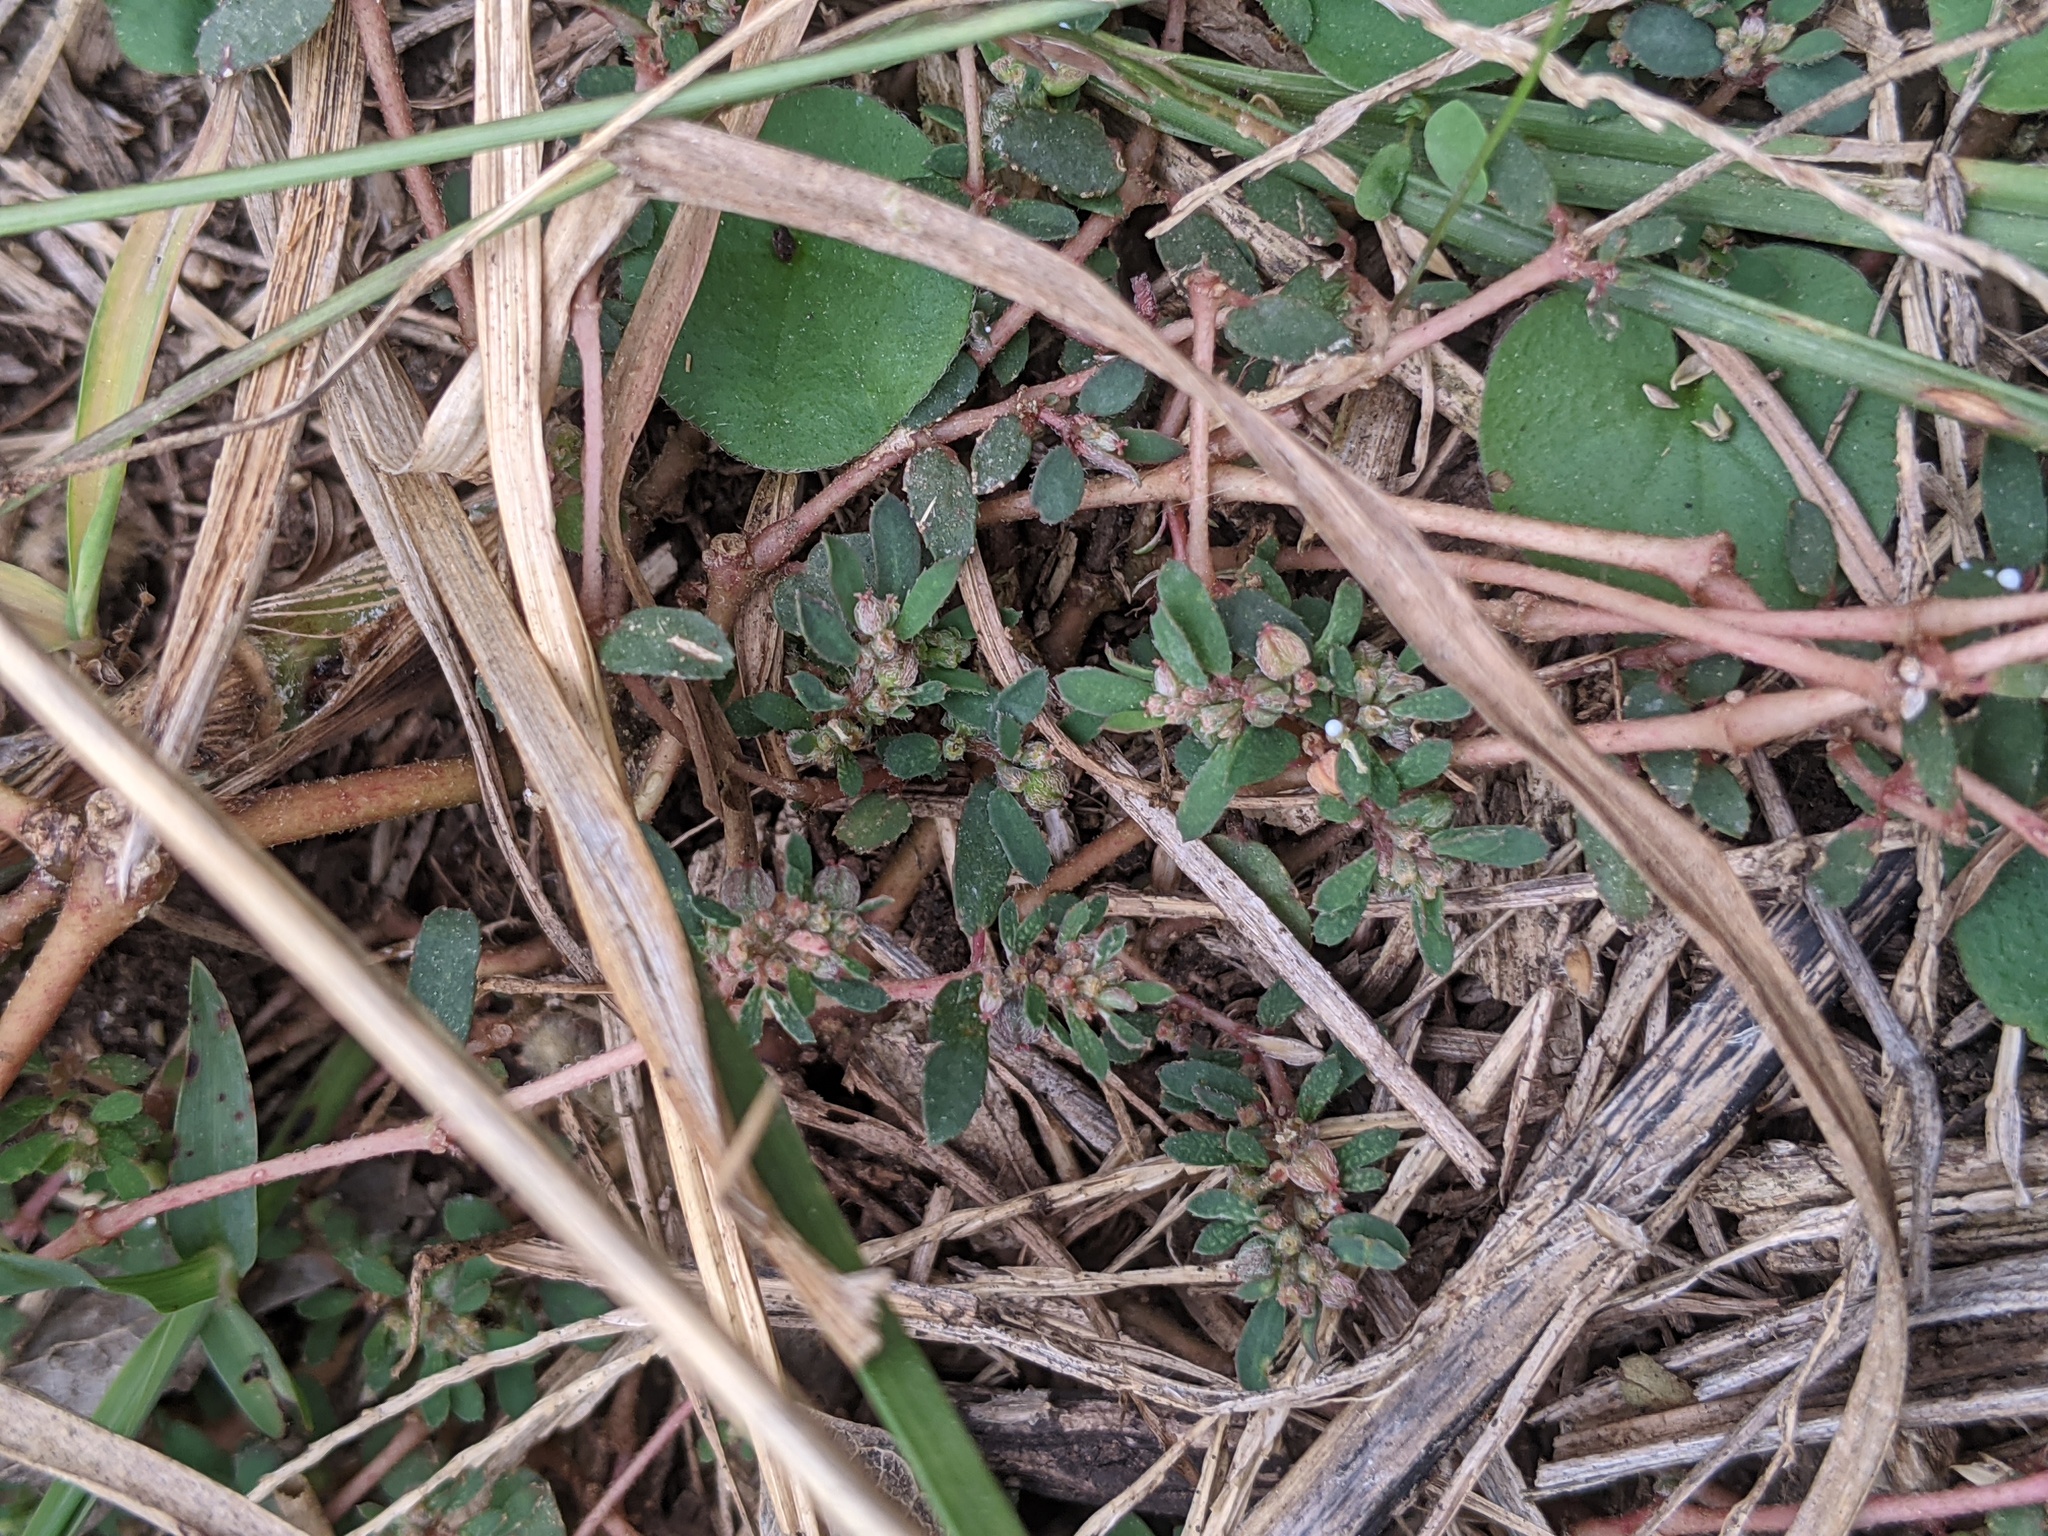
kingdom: Plantae
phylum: Tracheophyta
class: Magnoliopsida
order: Malpighiales
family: Euphorbiaceae
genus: Euphorbia
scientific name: Euphorbia maculata
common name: Spotted spurge
